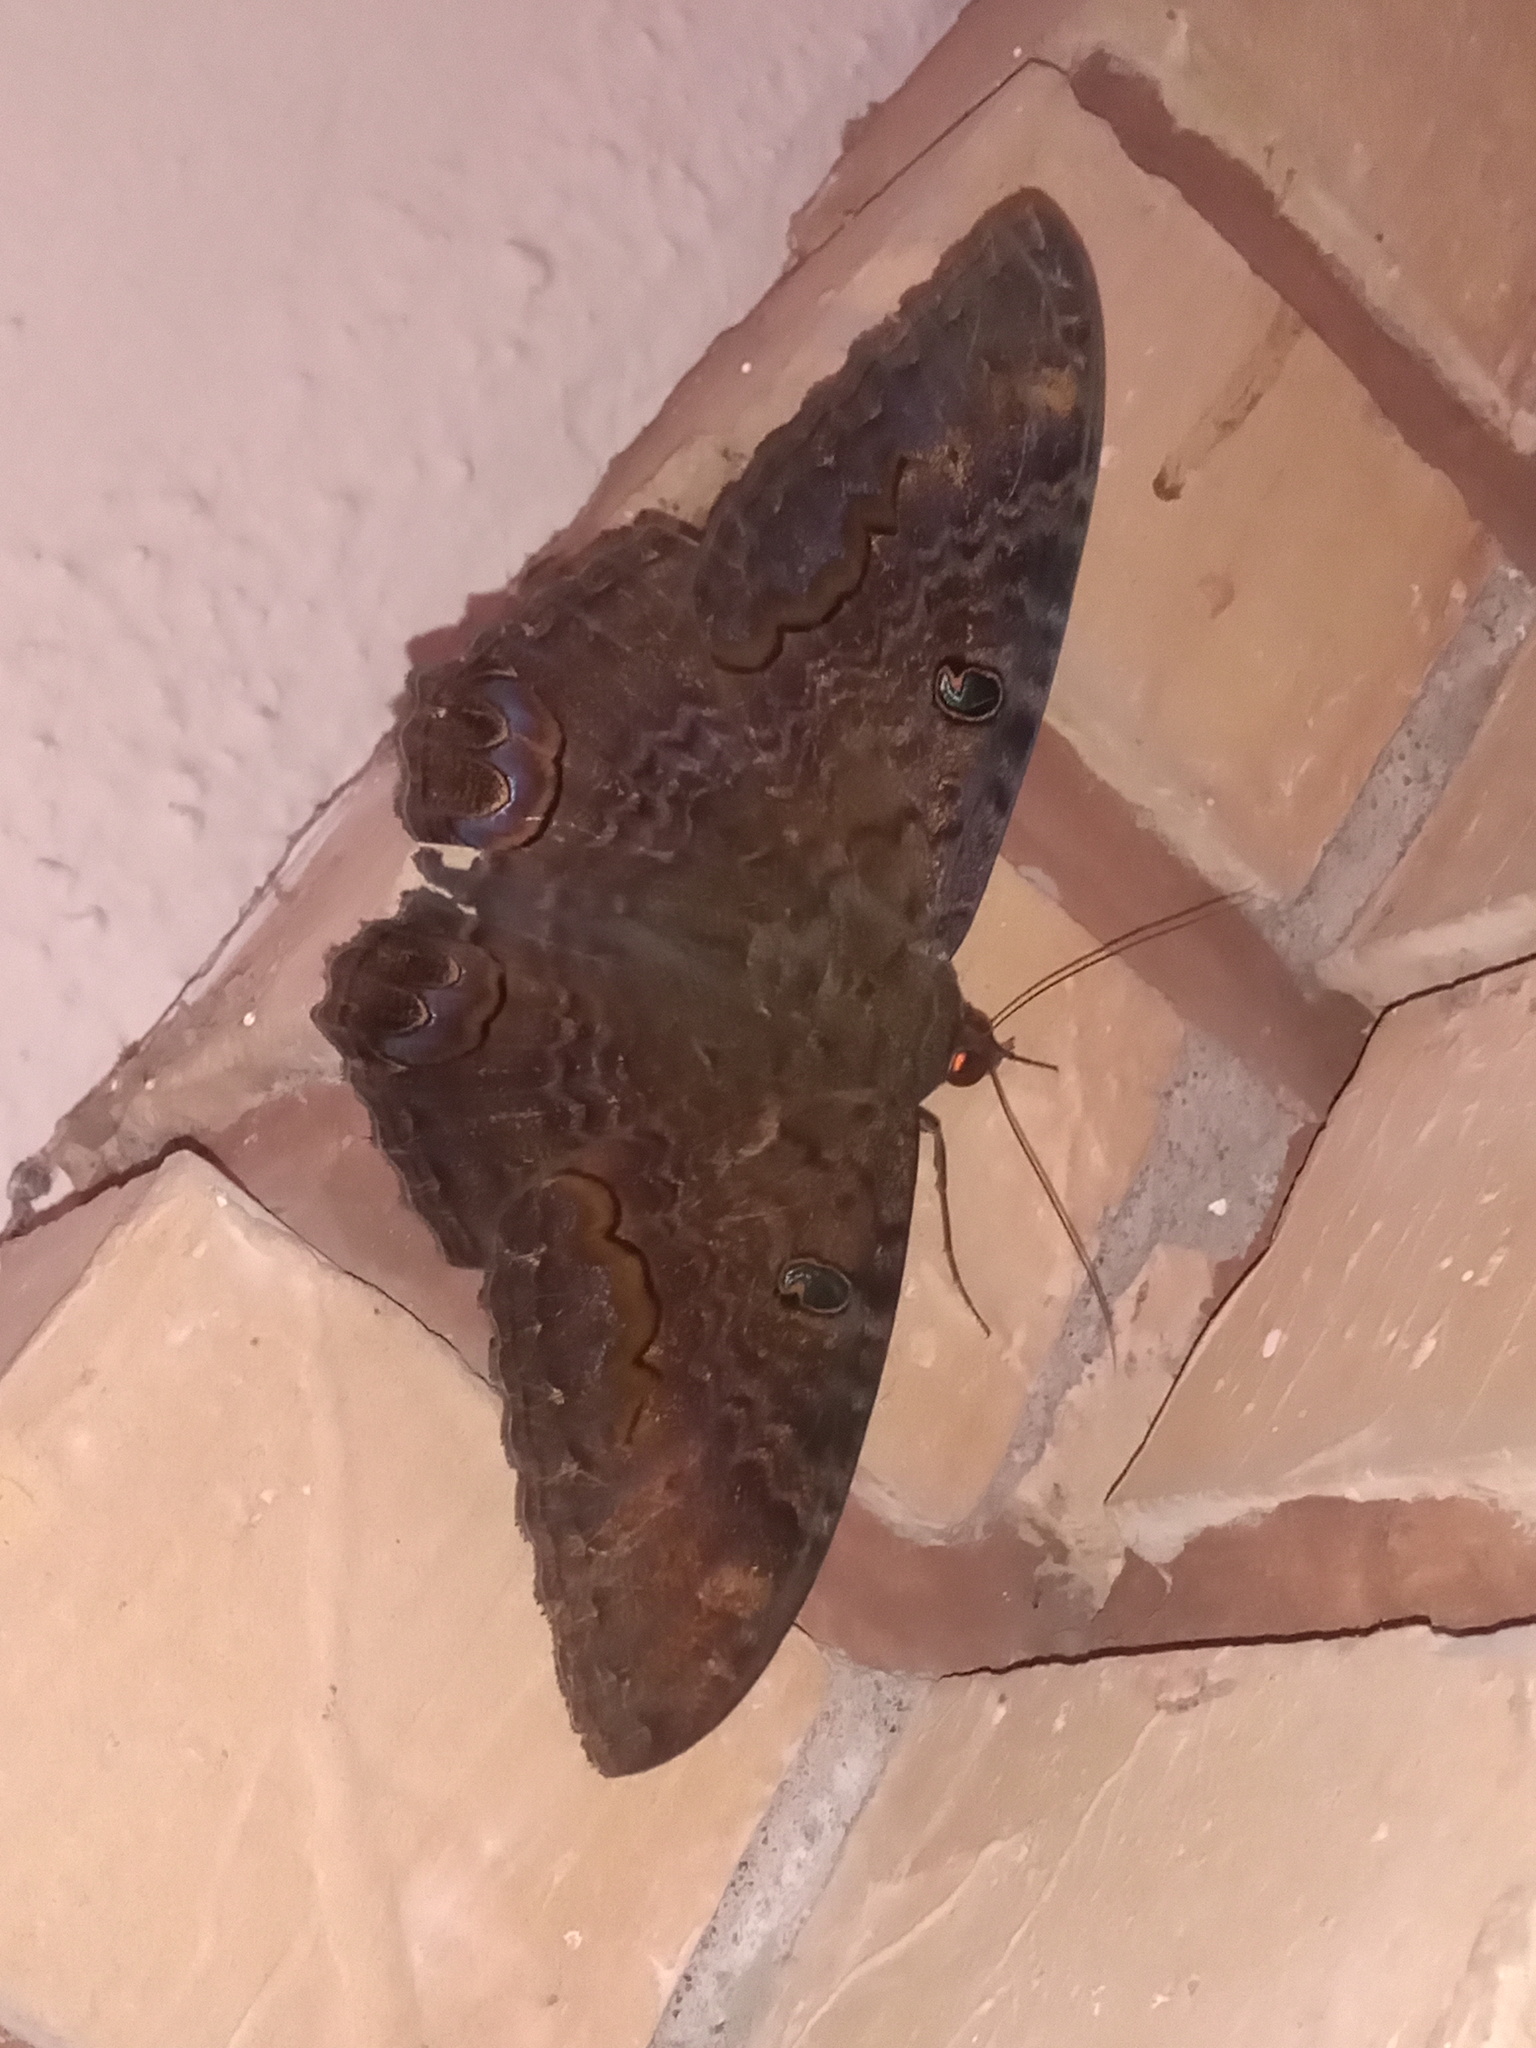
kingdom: Animalia
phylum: Arthropoda
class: Insecta
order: Lepidoptera
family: Erebidae
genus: Ascalapha
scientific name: Ascalapha odorata
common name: Black witch
